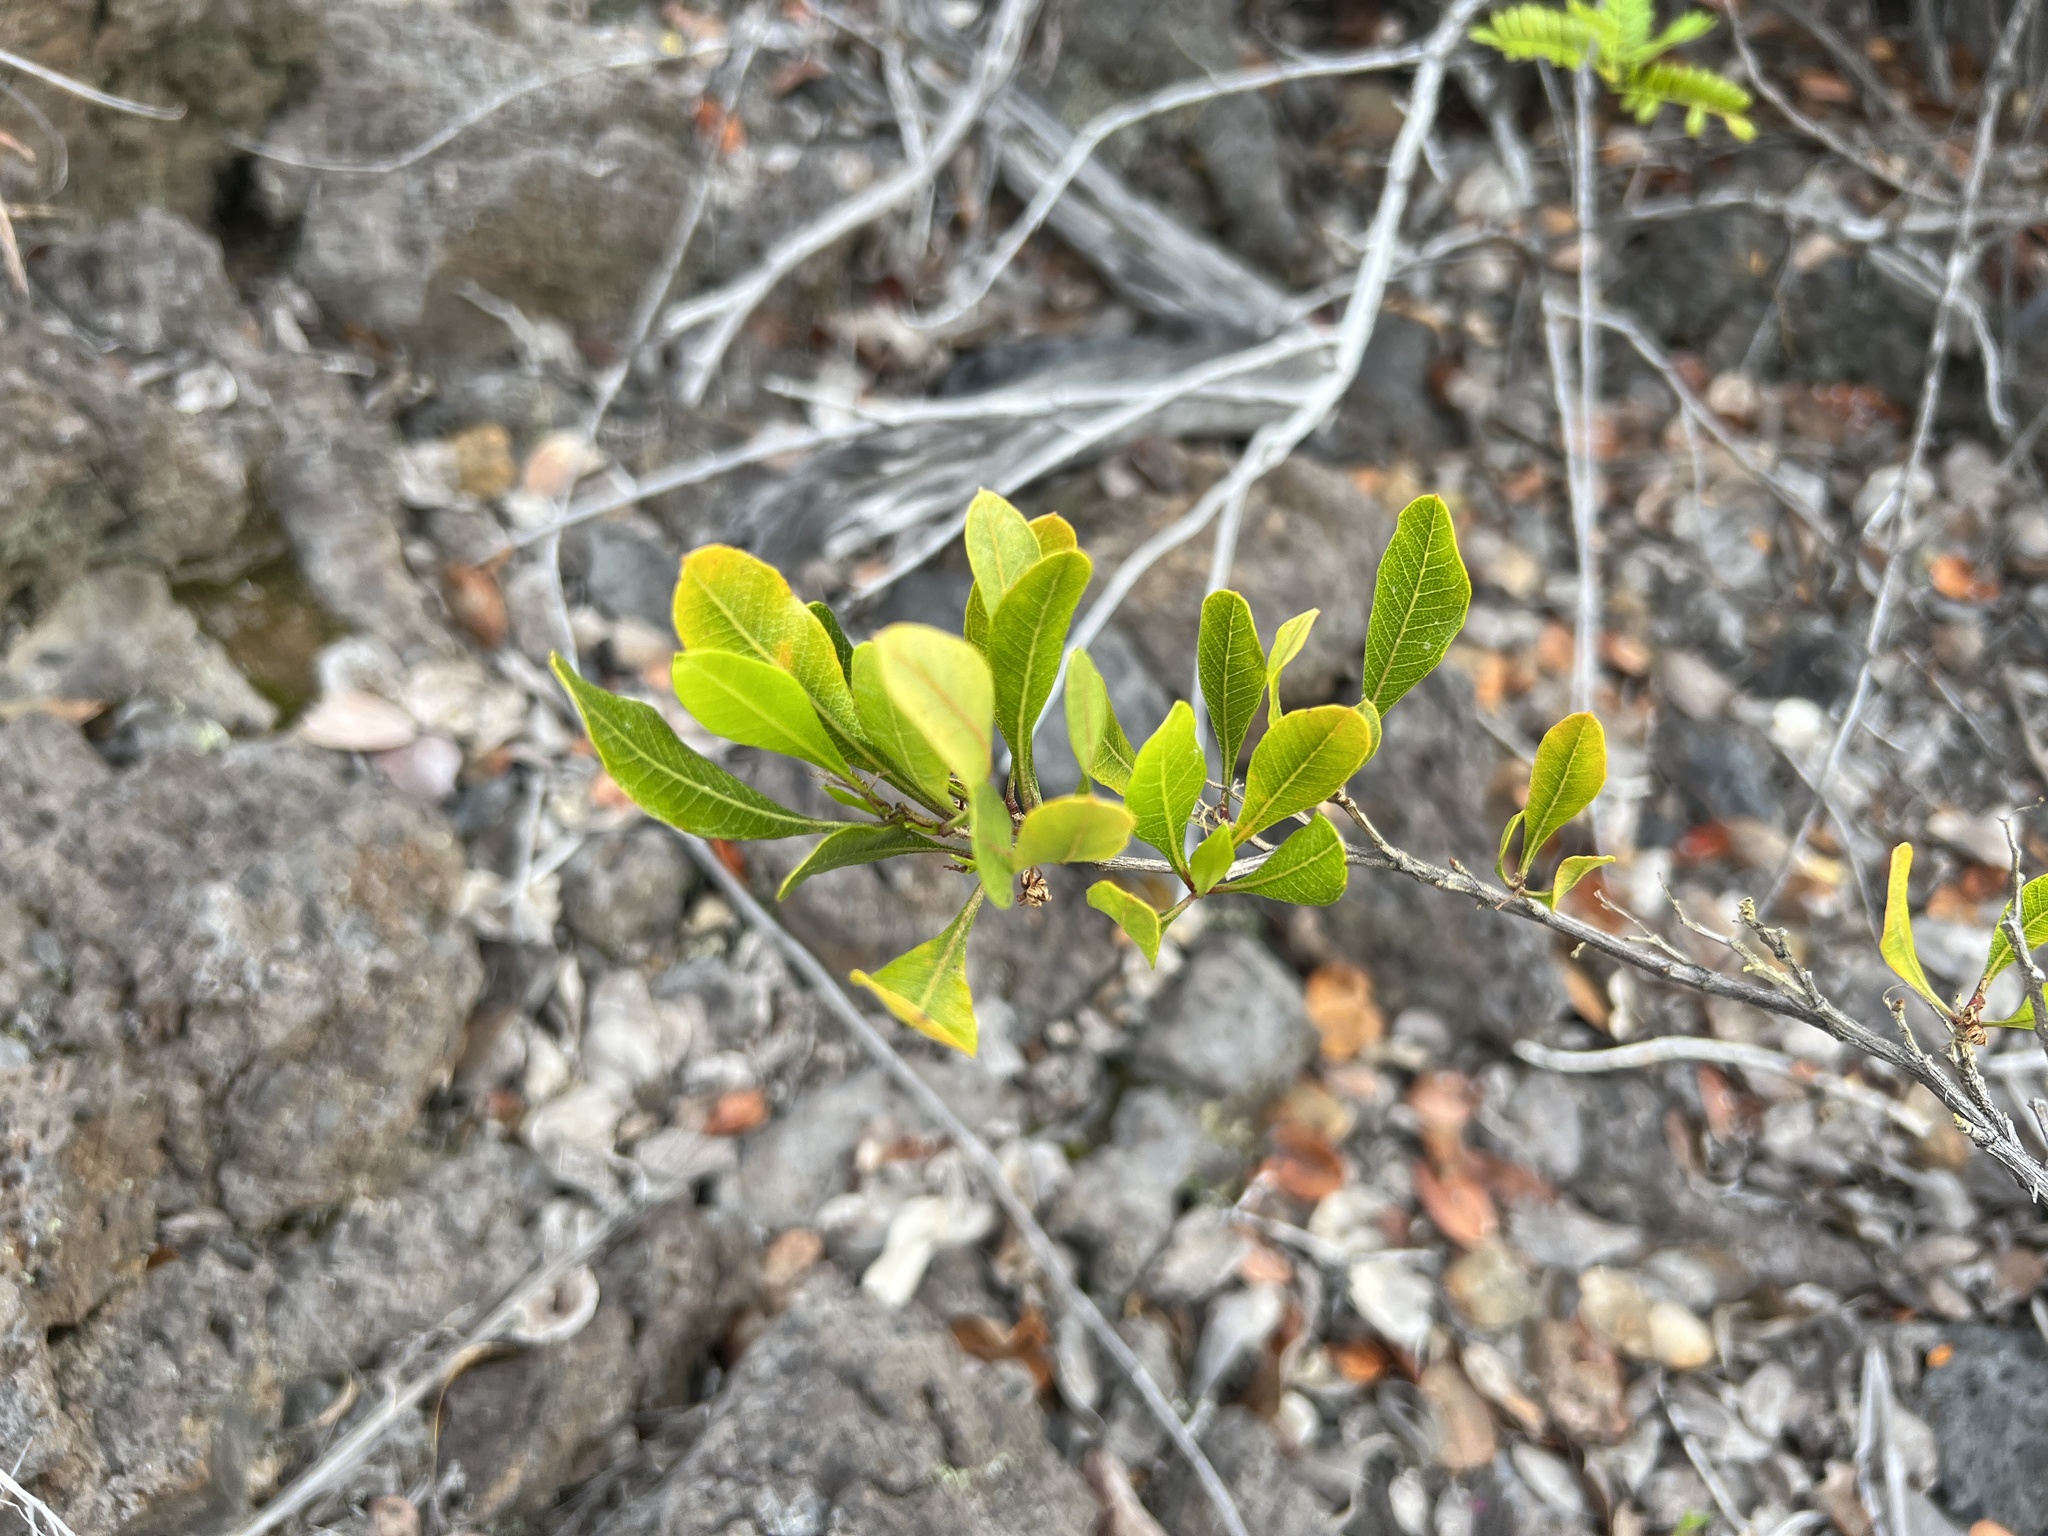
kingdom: Plantae
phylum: Tracheophyta
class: Magnoliopsida
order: Sapindales
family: Sapindaceae
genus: Dodonaea
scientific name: Dodonaea viscosa
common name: Hopbush
